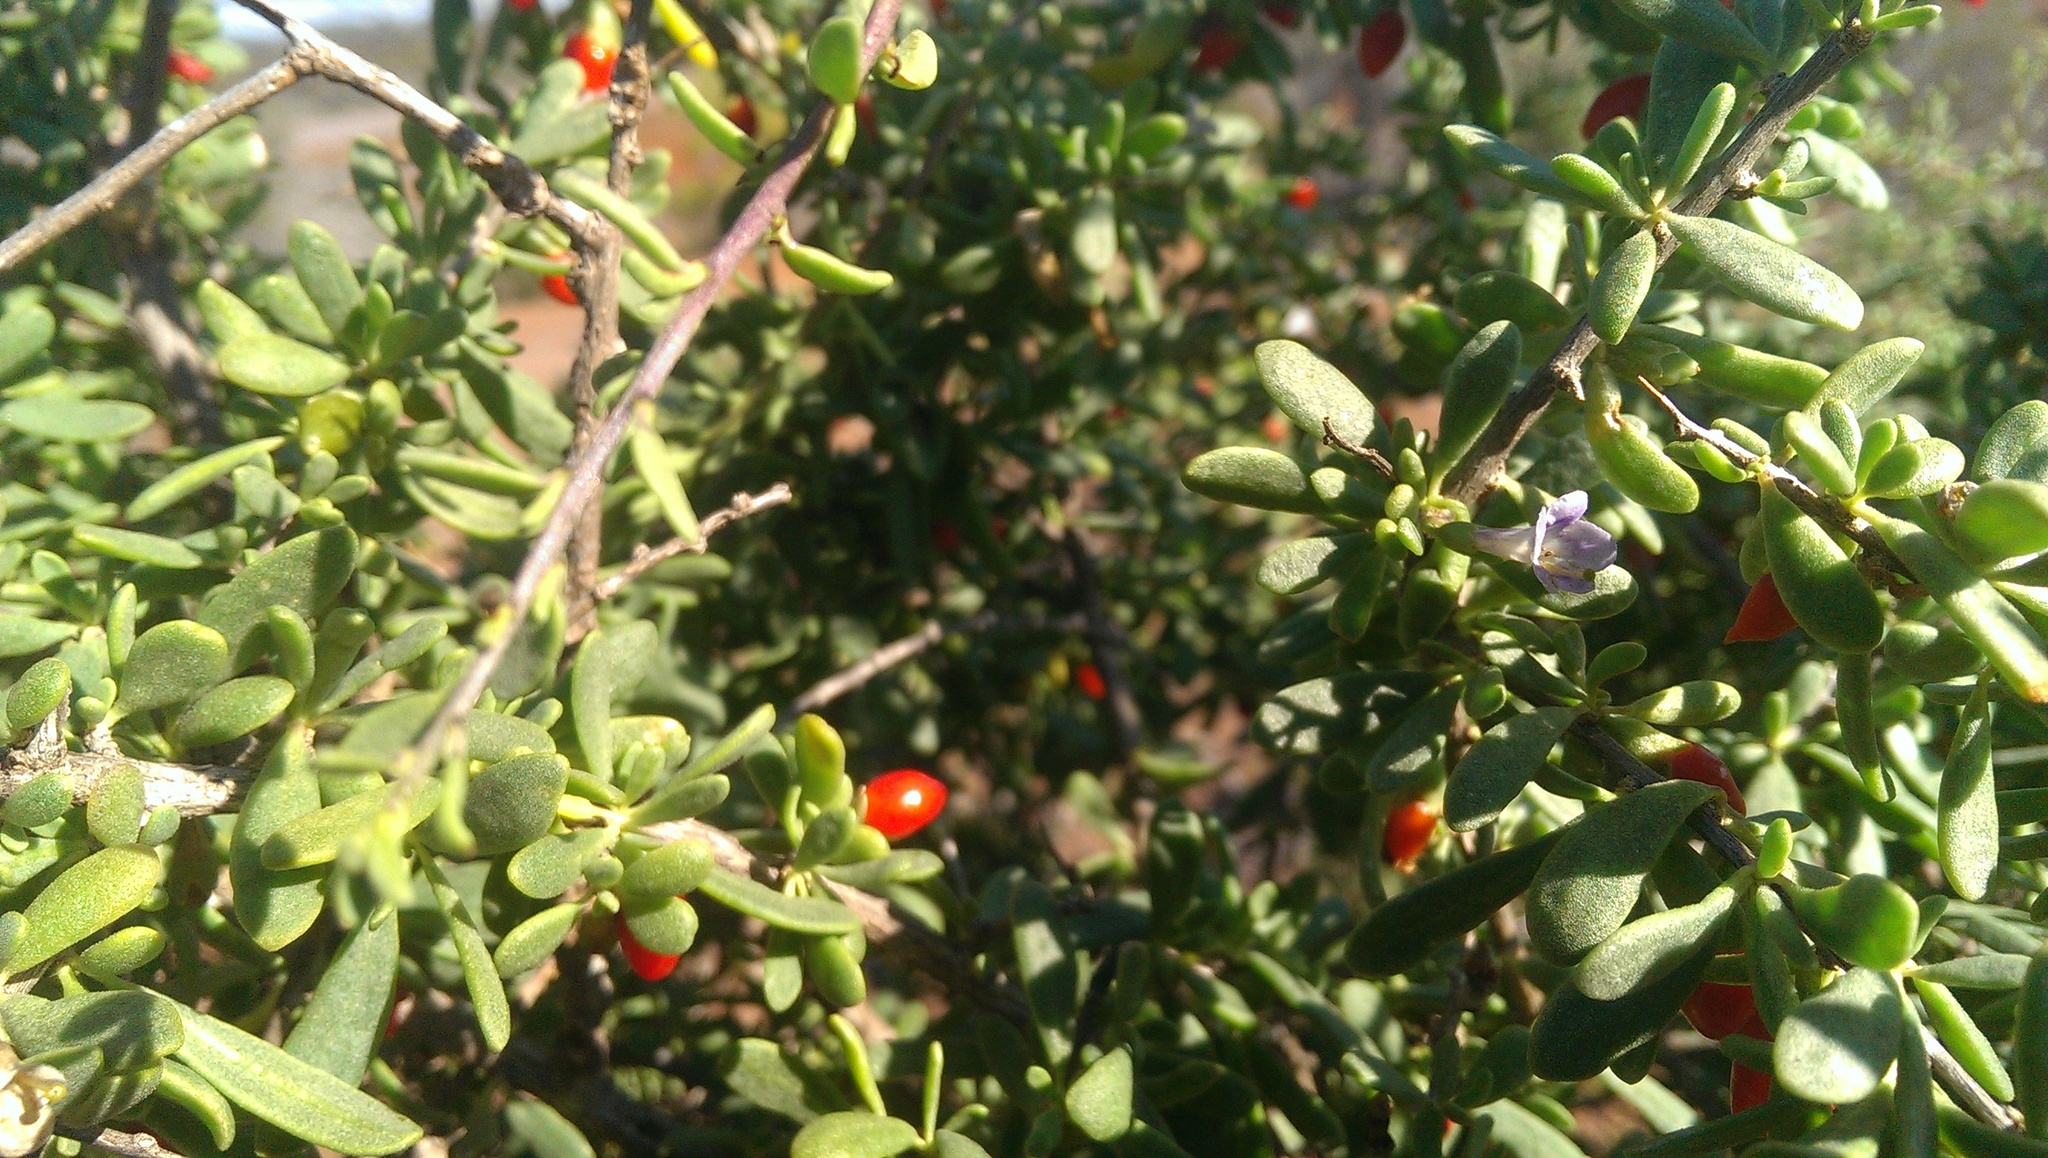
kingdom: Plantae
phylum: Tracheophyta
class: Magnoliopsida
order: Solanales
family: Solanaceae
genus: Lycium
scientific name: Lycium australe
